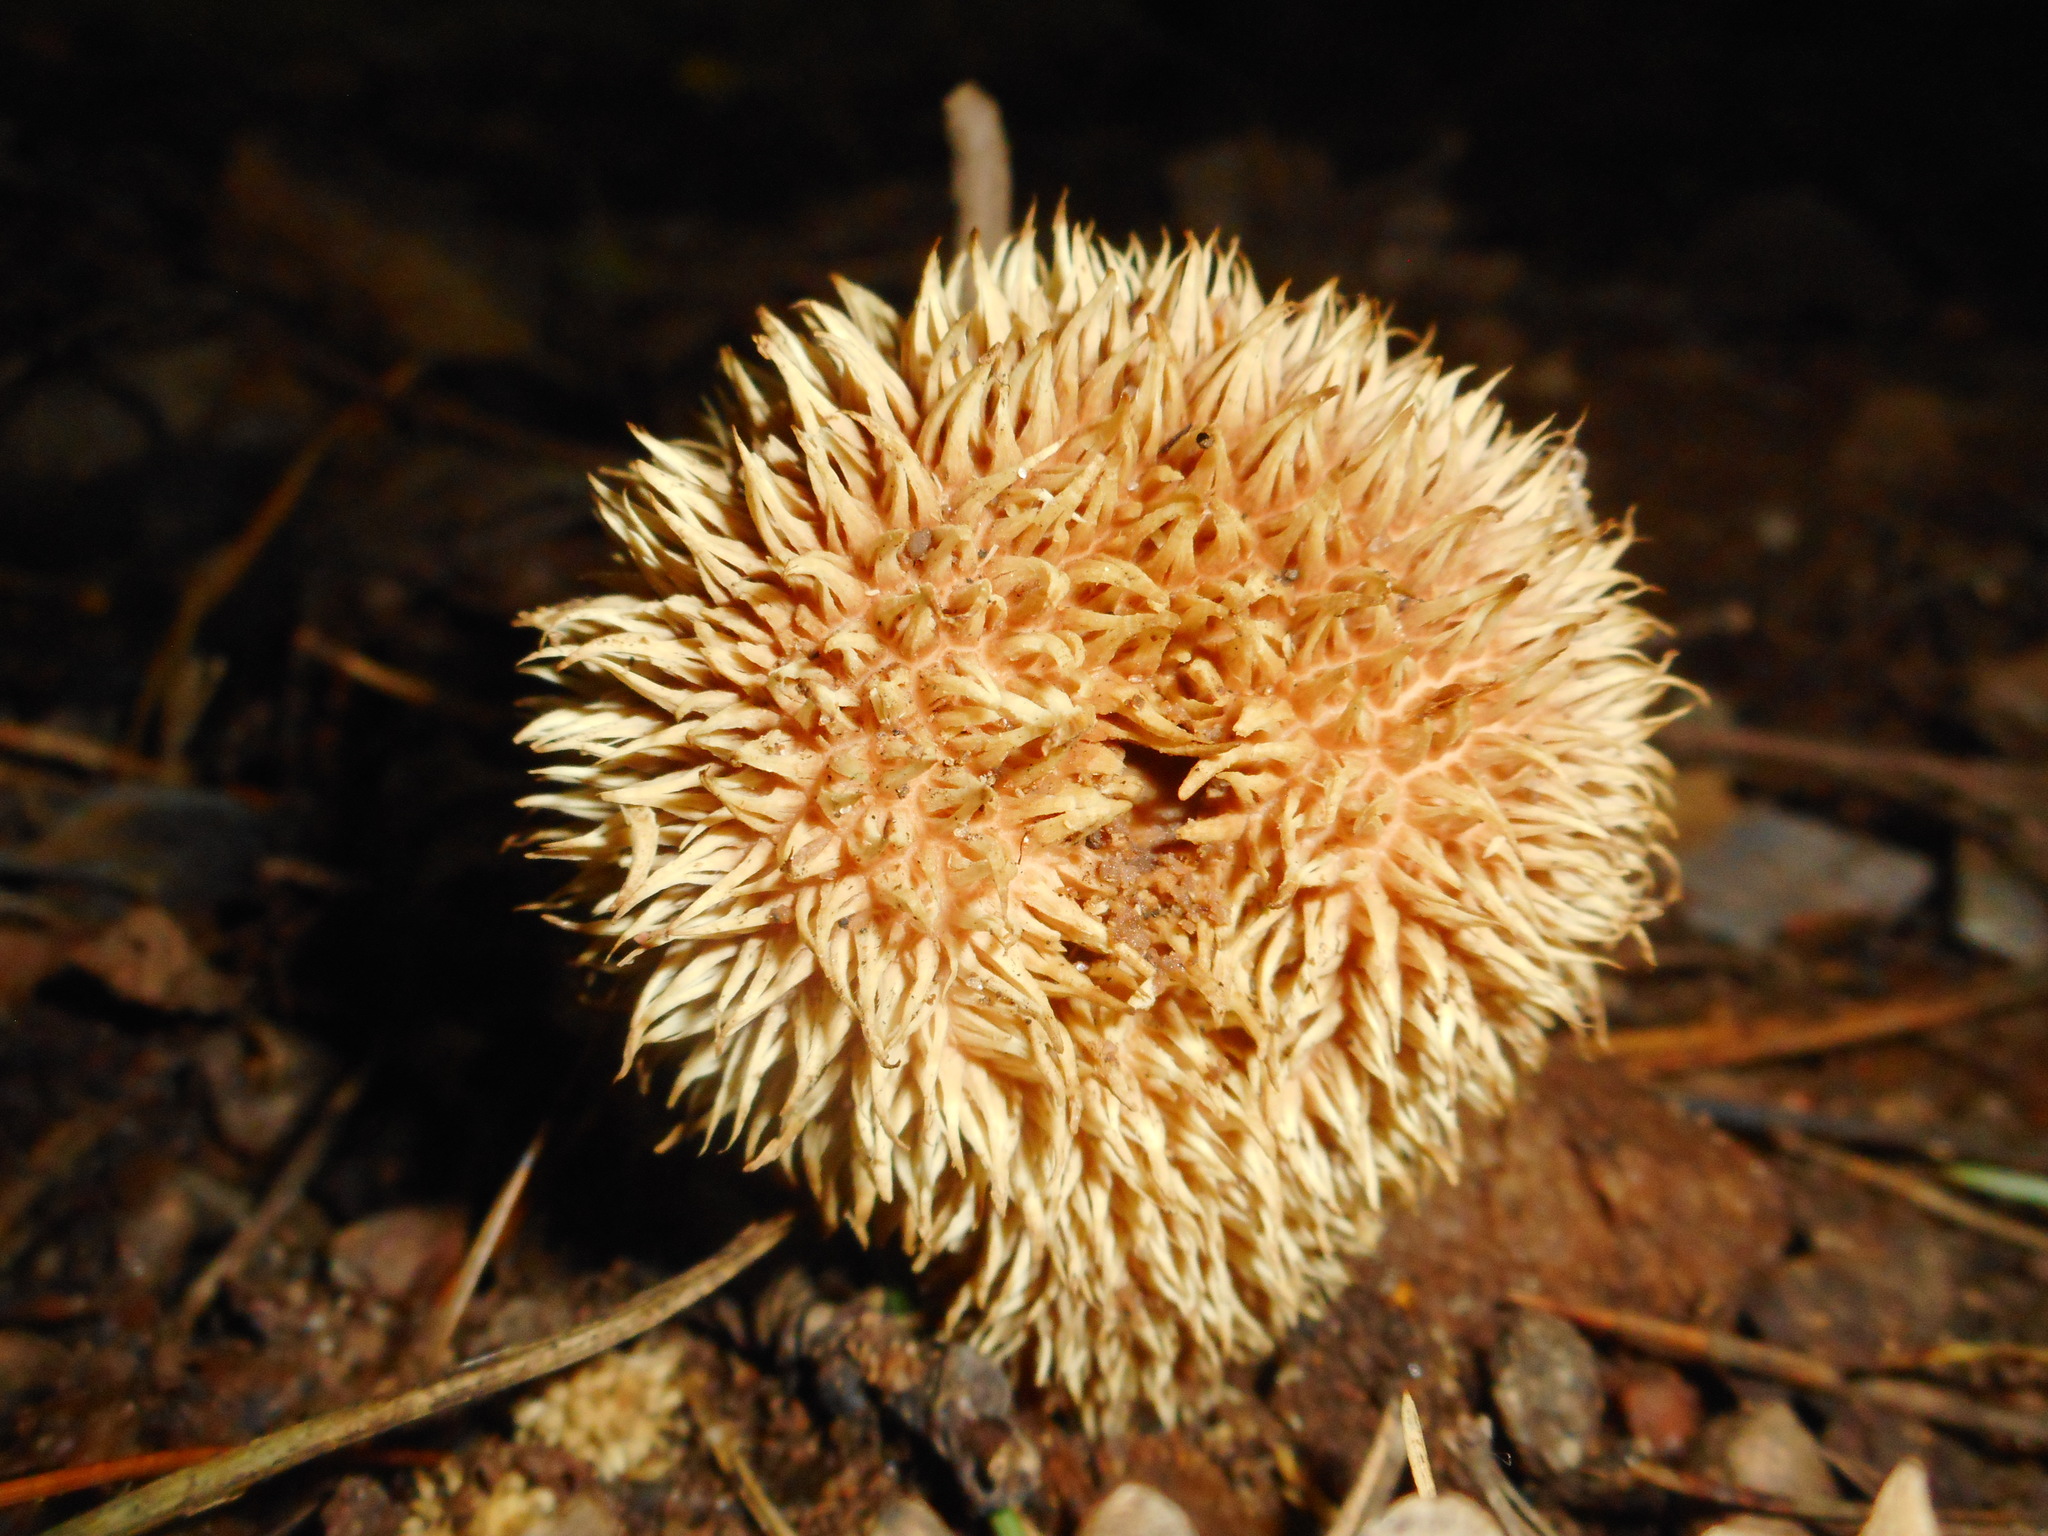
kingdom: Fungi
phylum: Basidiomycota
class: Agaricomycetes
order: Agaricales
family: Lycoperdaceae
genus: Lycoperdon
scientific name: Lycoperdon echinatum
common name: Hedgehog puffball
